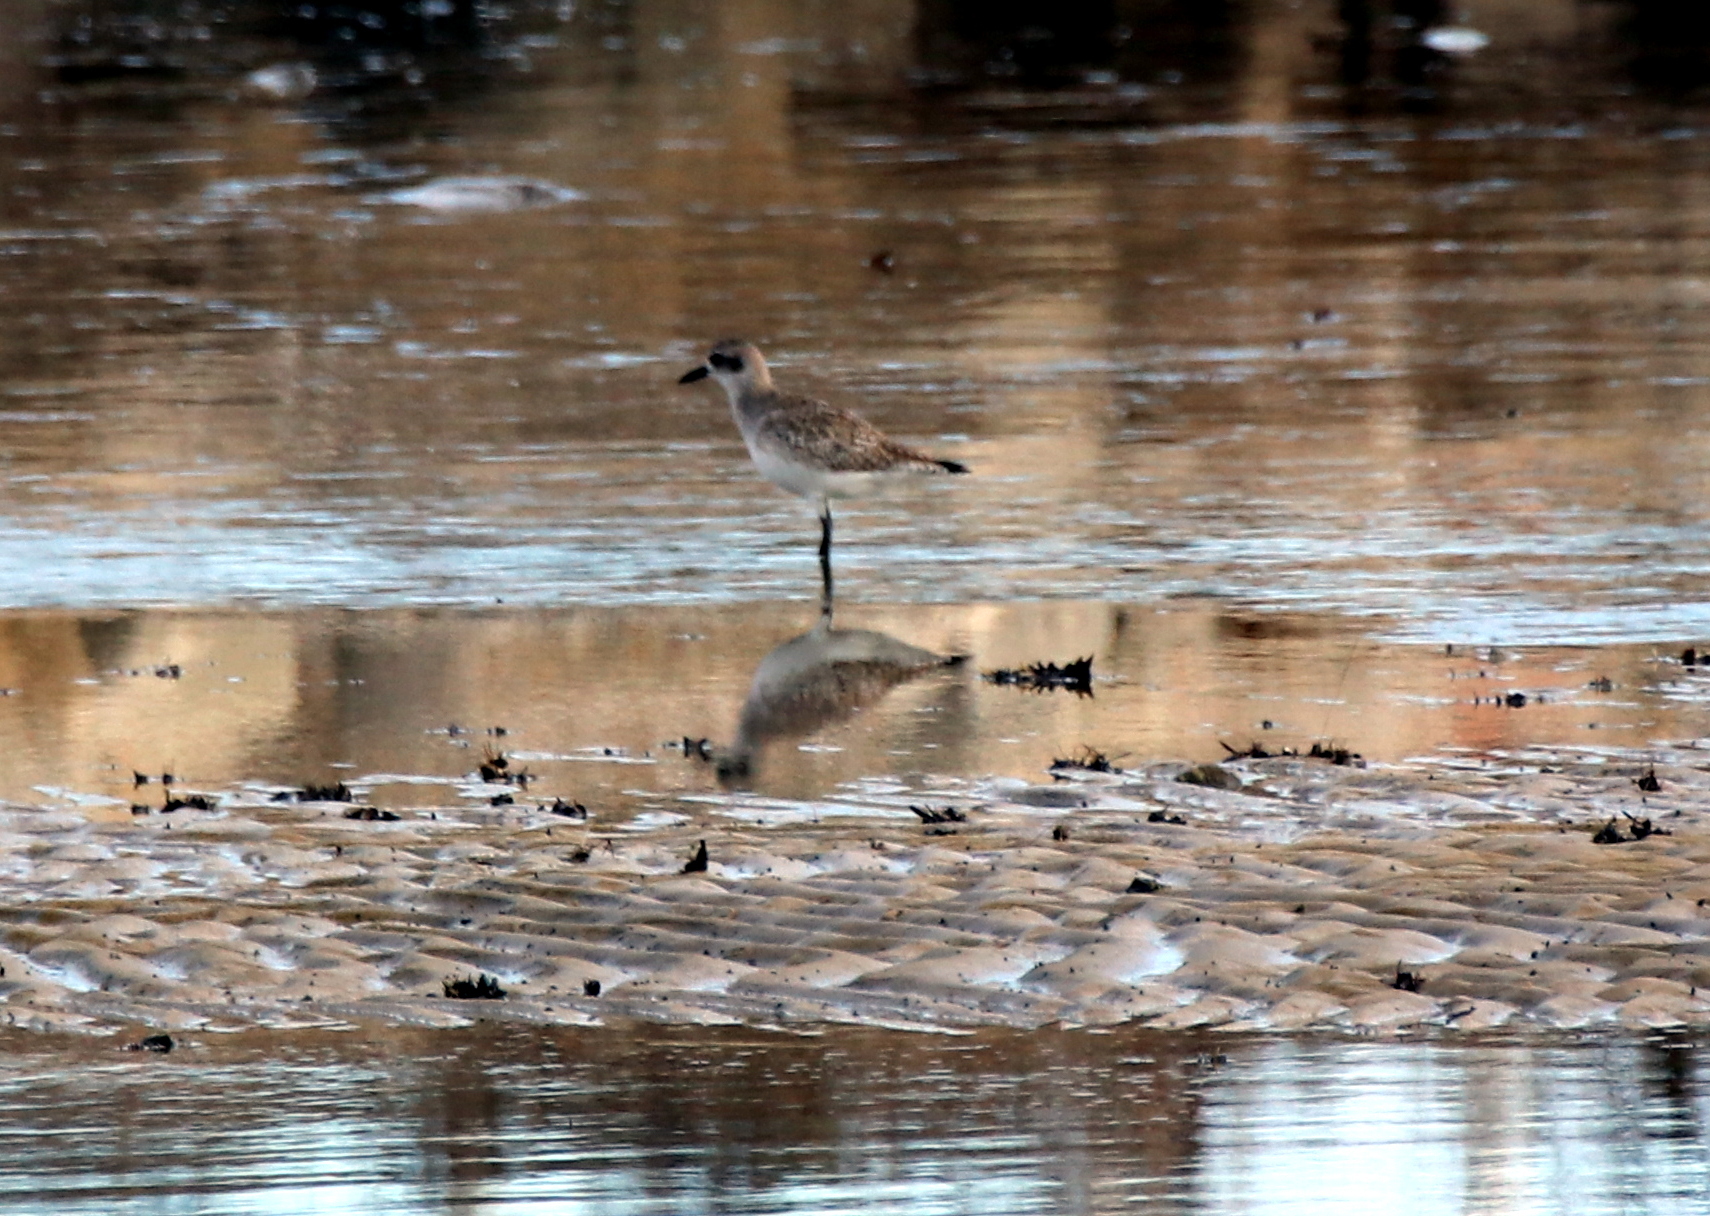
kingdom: Animalia
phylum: Chordata
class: Aves
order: Charadriiformes
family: Charadriidae
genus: Pluvialis
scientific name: Pluvialis squatarola
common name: Grey plover
